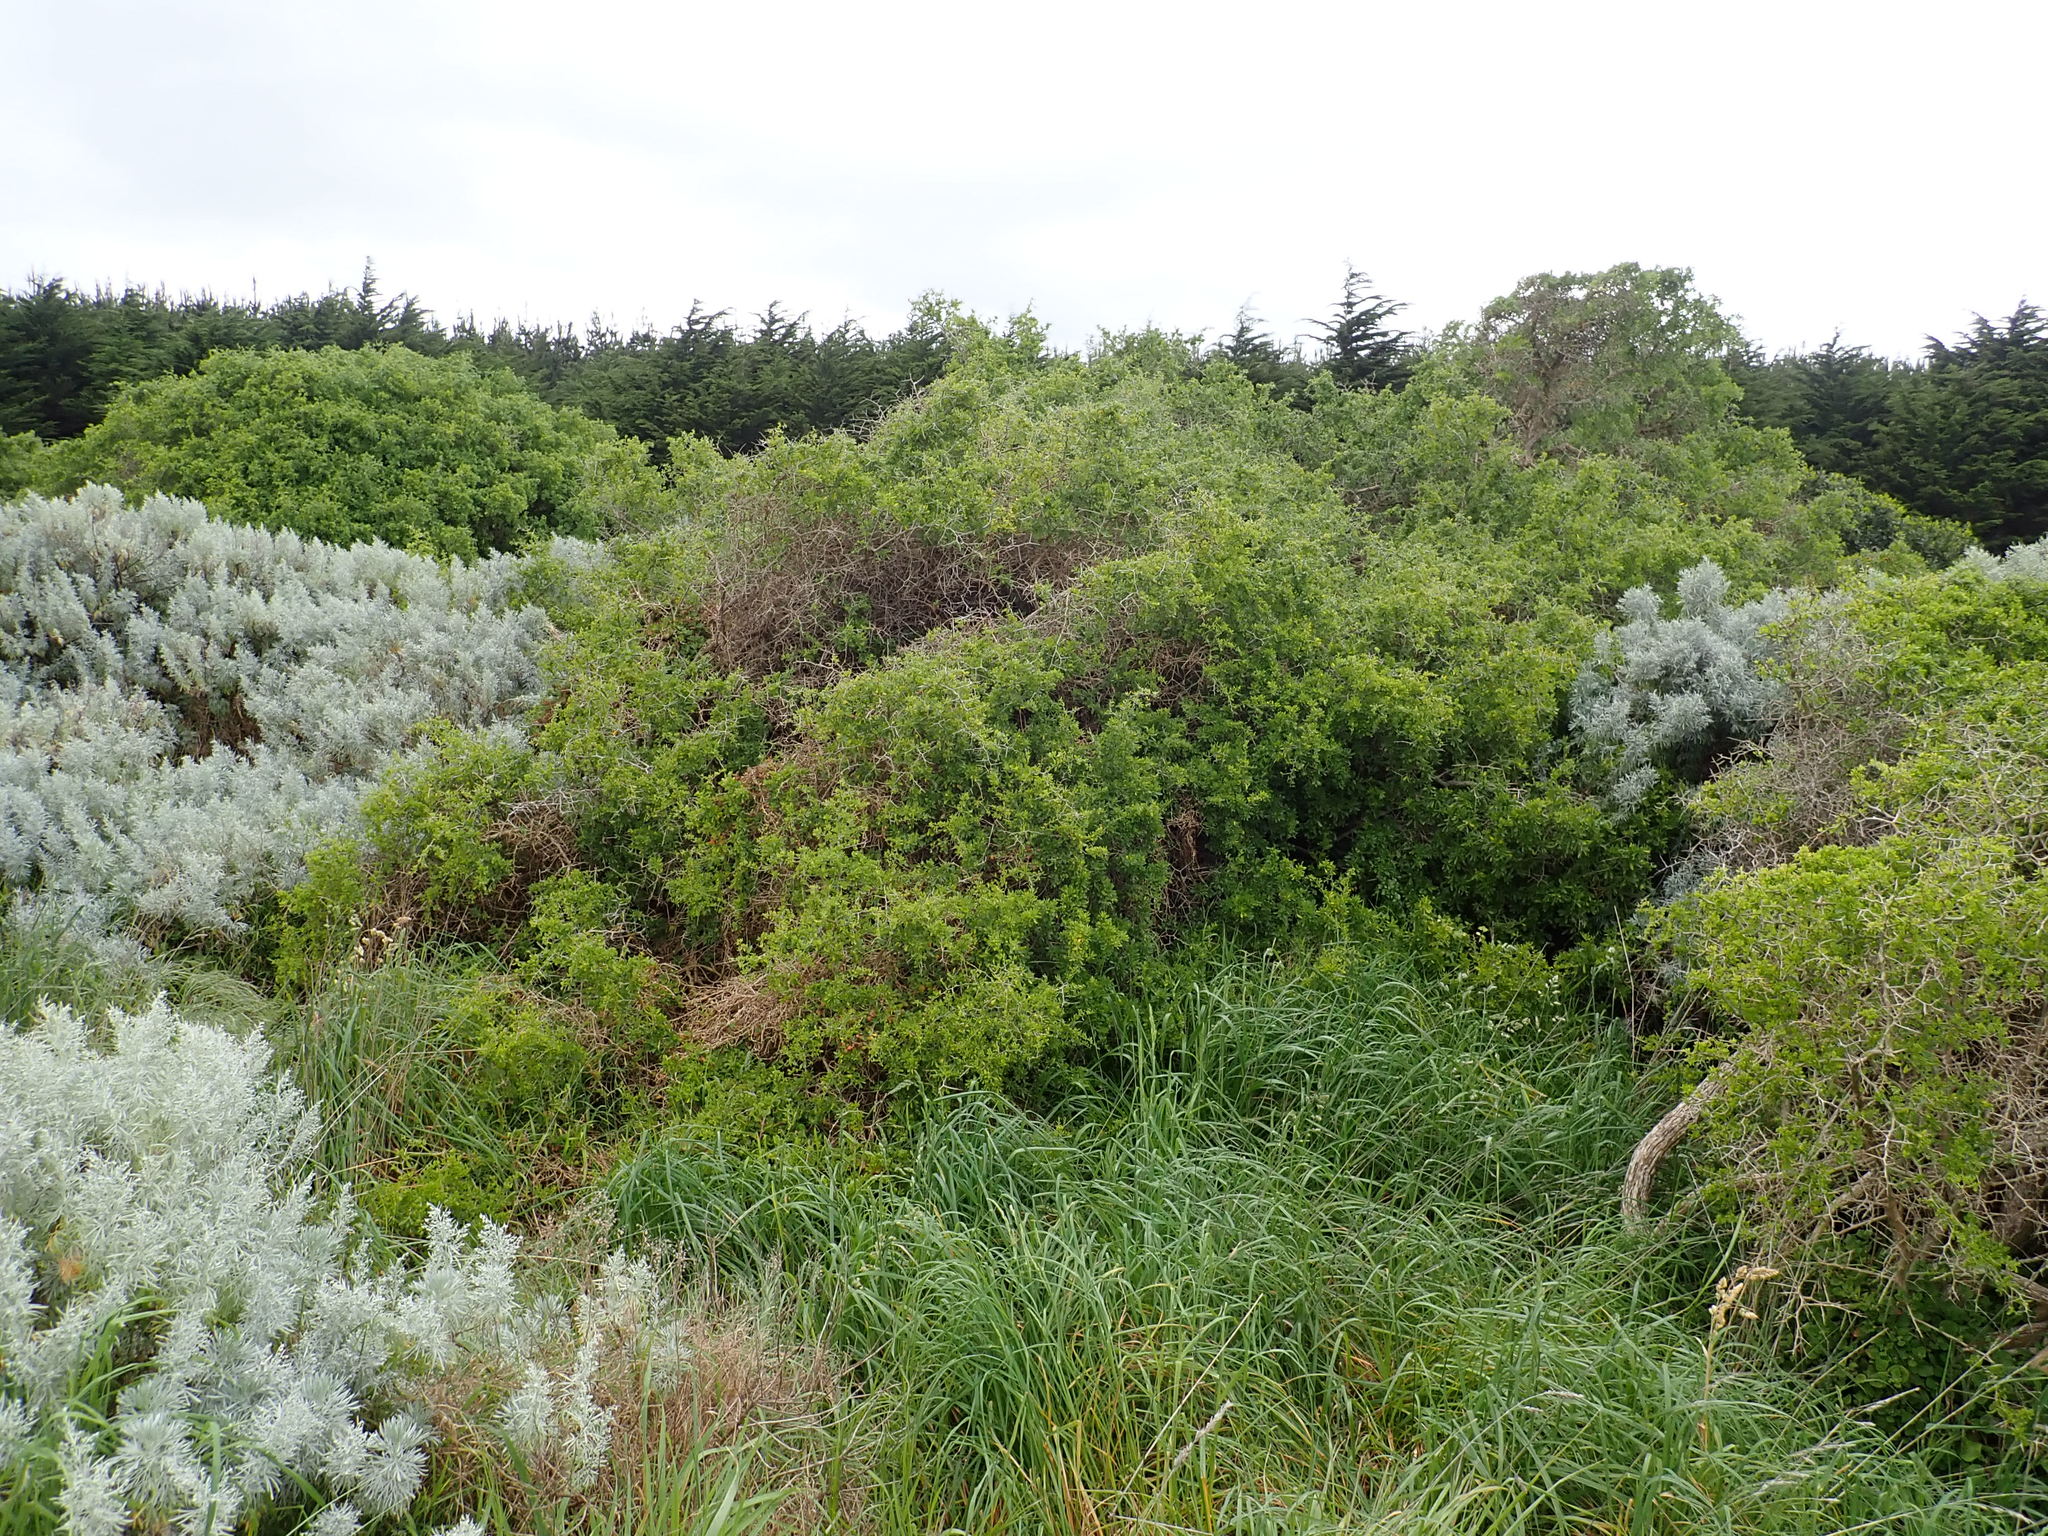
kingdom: Plantae
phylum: Tracheophyta
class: Magnoliopsida
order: Solanales
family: Solanaceae
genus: Lycium
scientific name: Lycium ferocissimum
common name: African boxthorn
